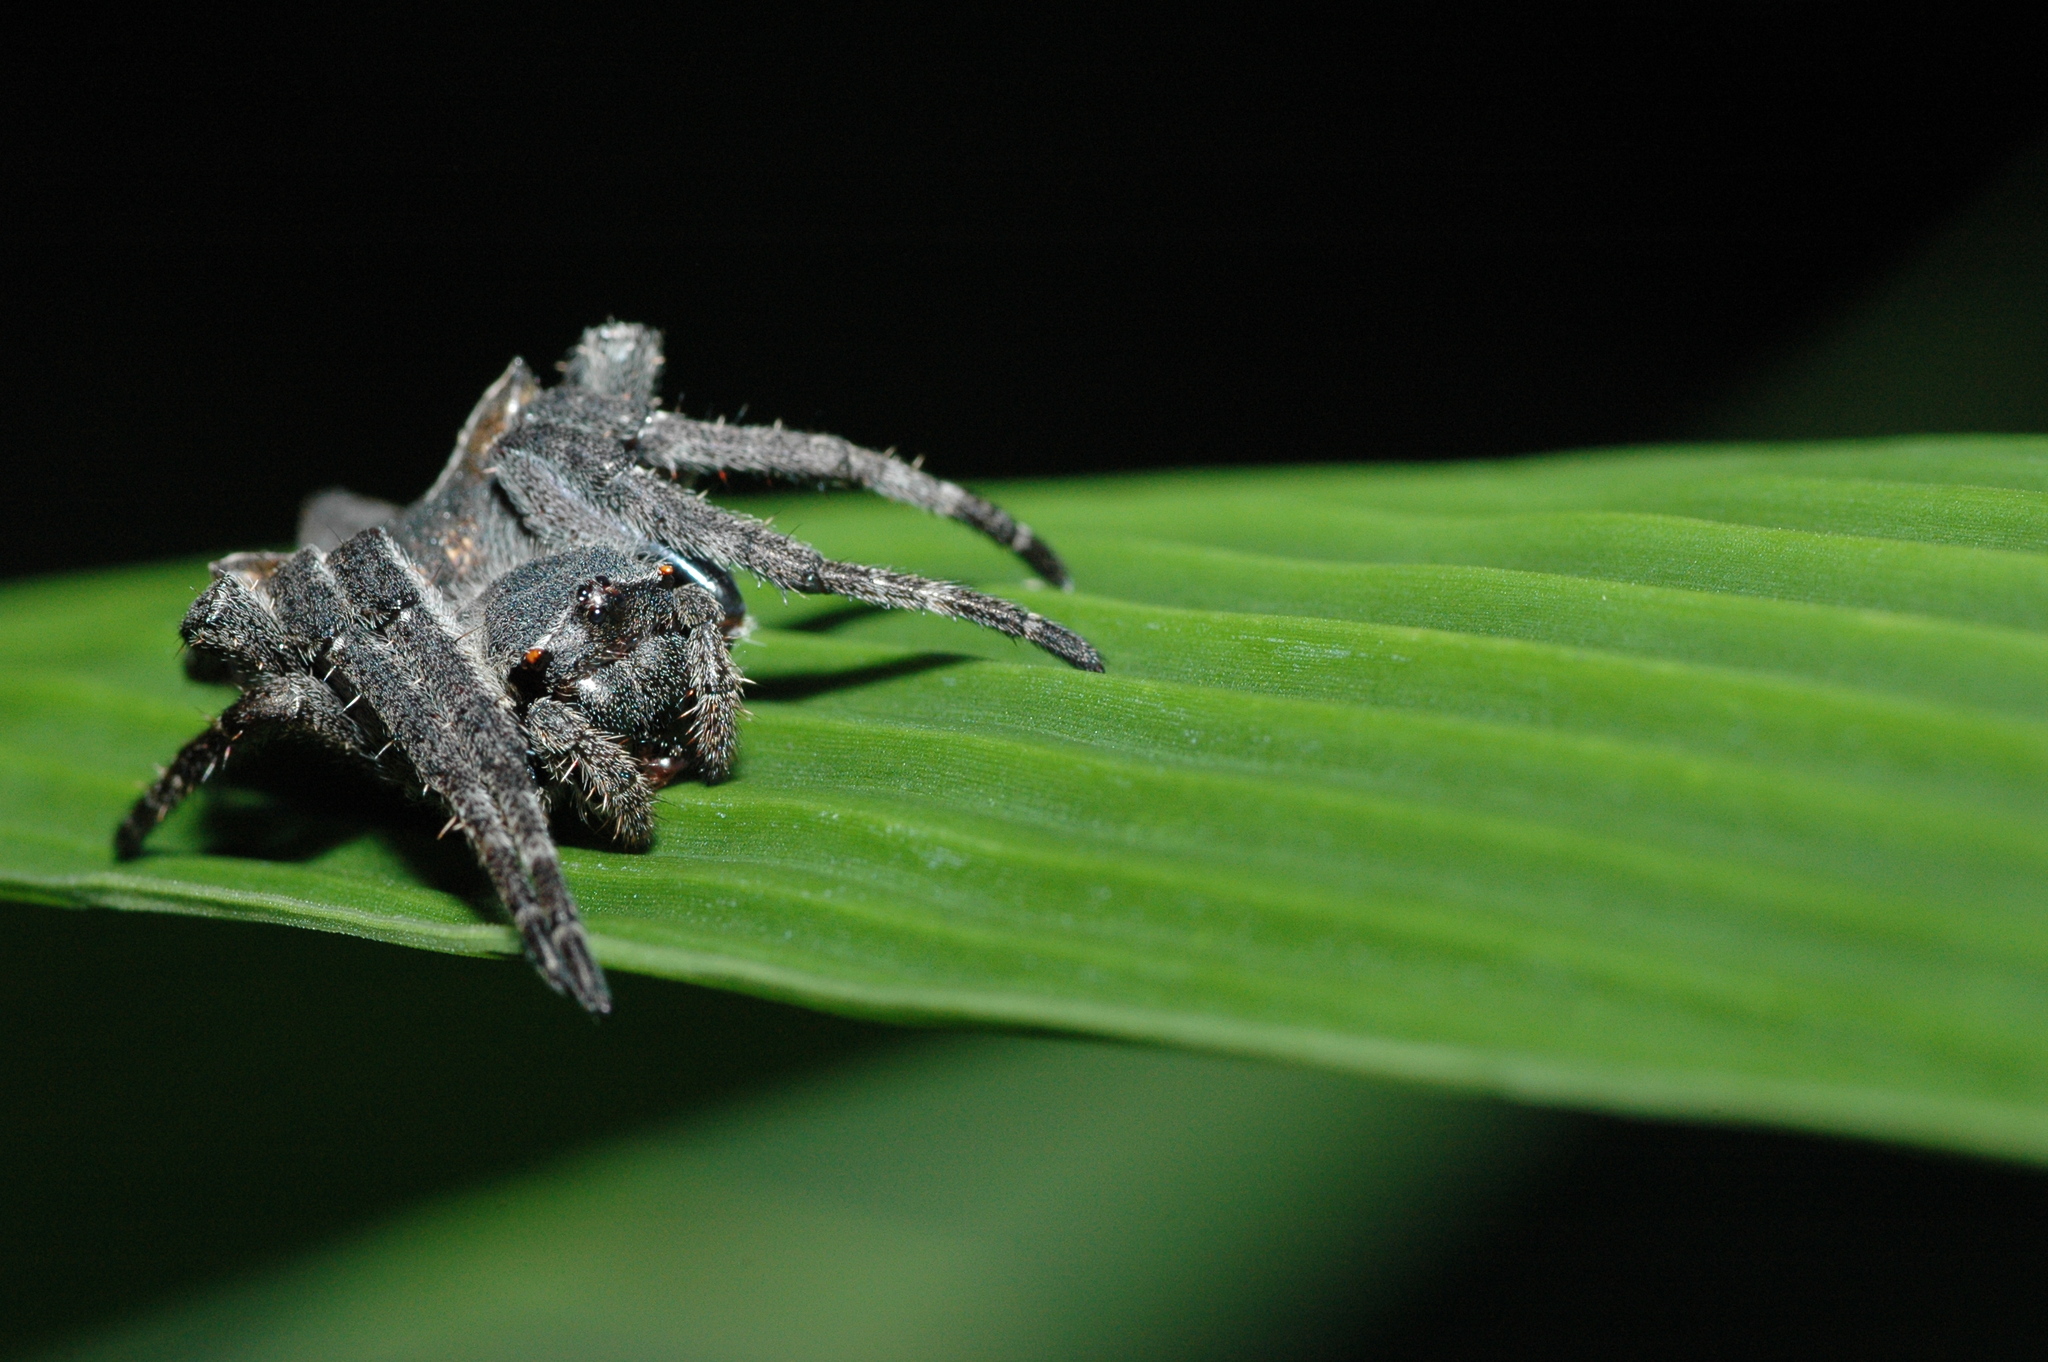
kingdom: Animalia
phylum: Arthropoda
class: Arachnida
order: Araneae
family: Araneidae
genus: Parawixia
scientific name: Parawixia dehaani
